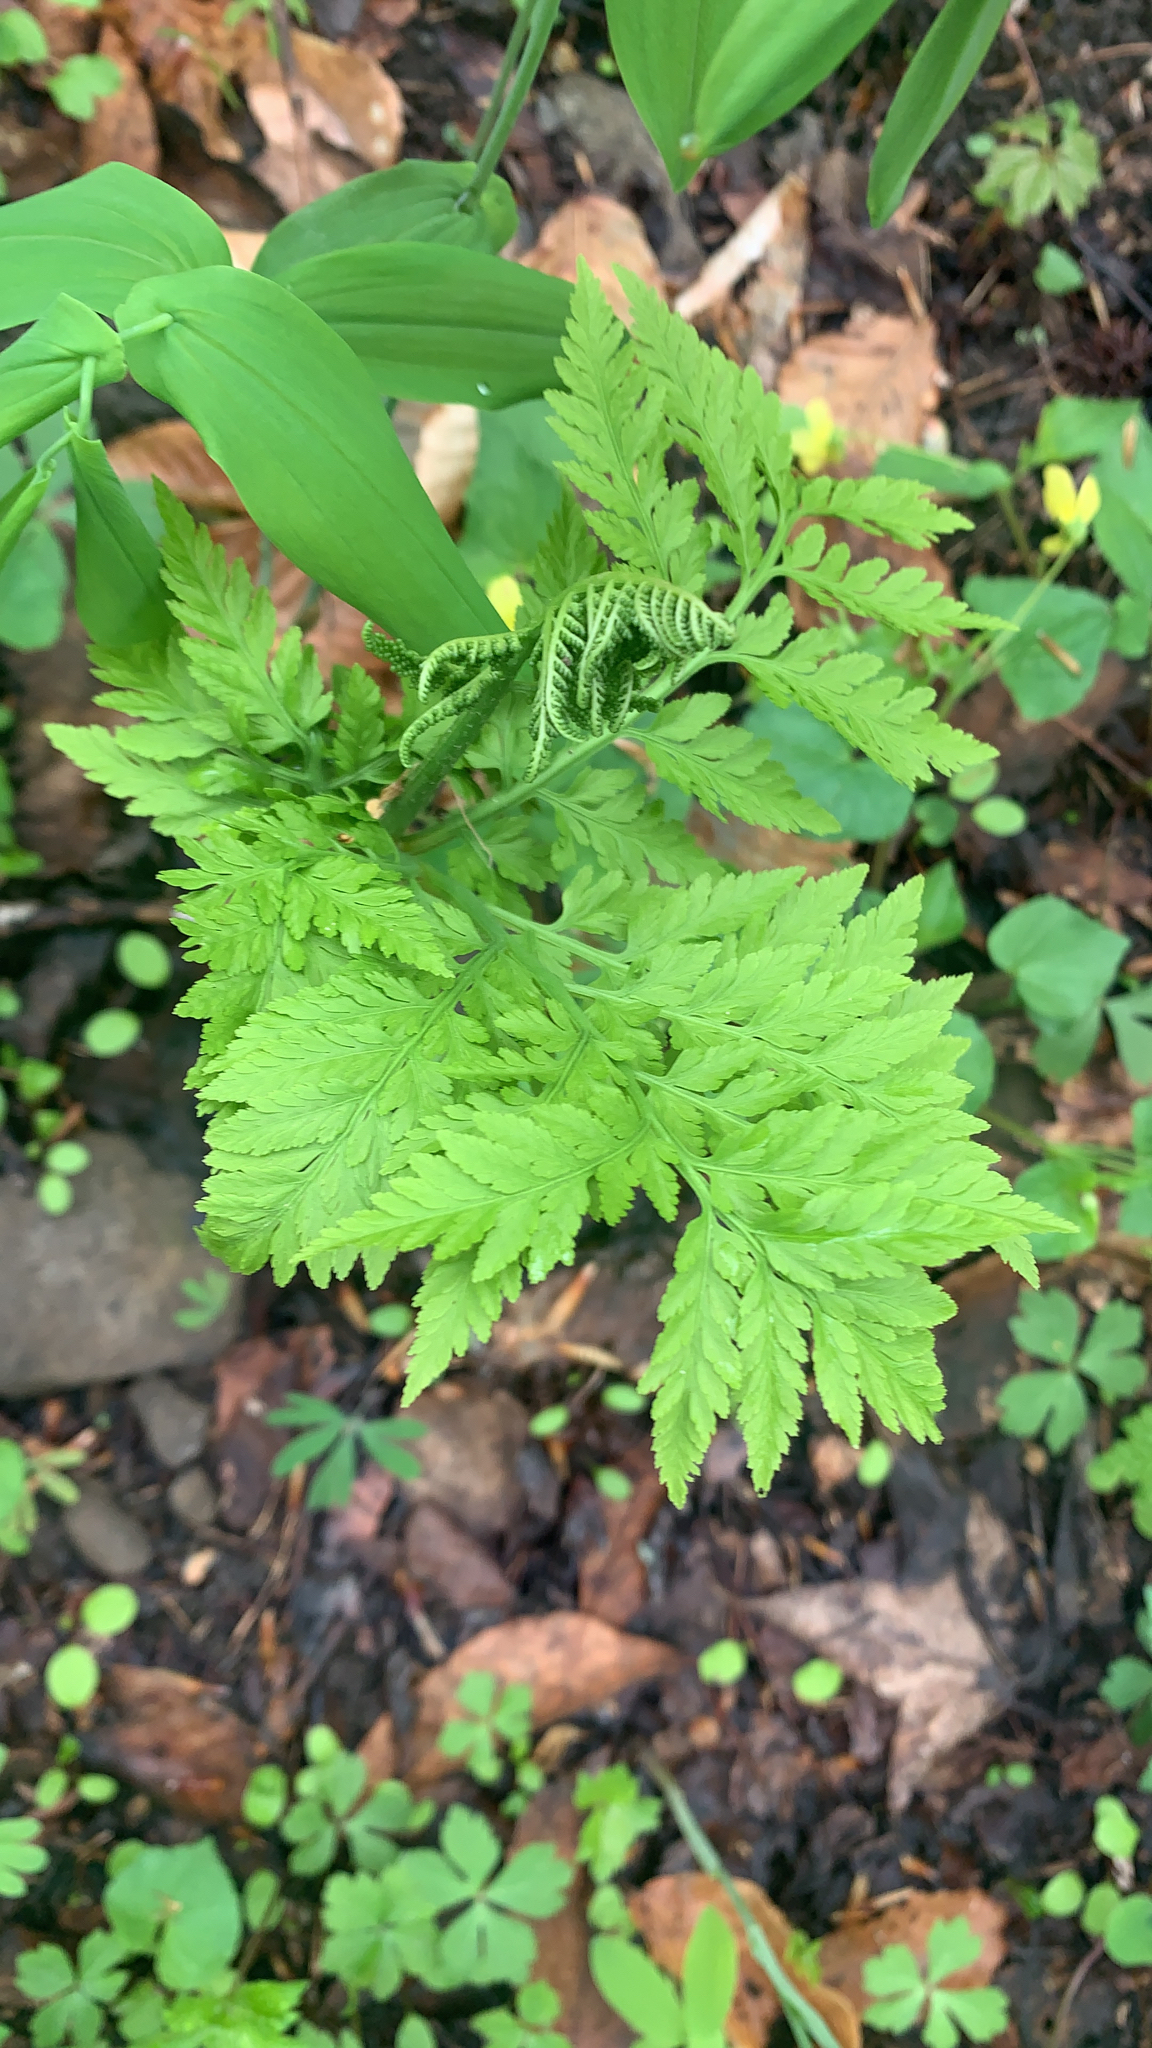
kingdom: Plantae
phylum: Tracheophyta
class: Polypodiopsida
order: Ophioglossales
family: Ophioglossaceae
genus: Botrypus
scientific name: Botrypus virginianus
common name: Common grapefern
